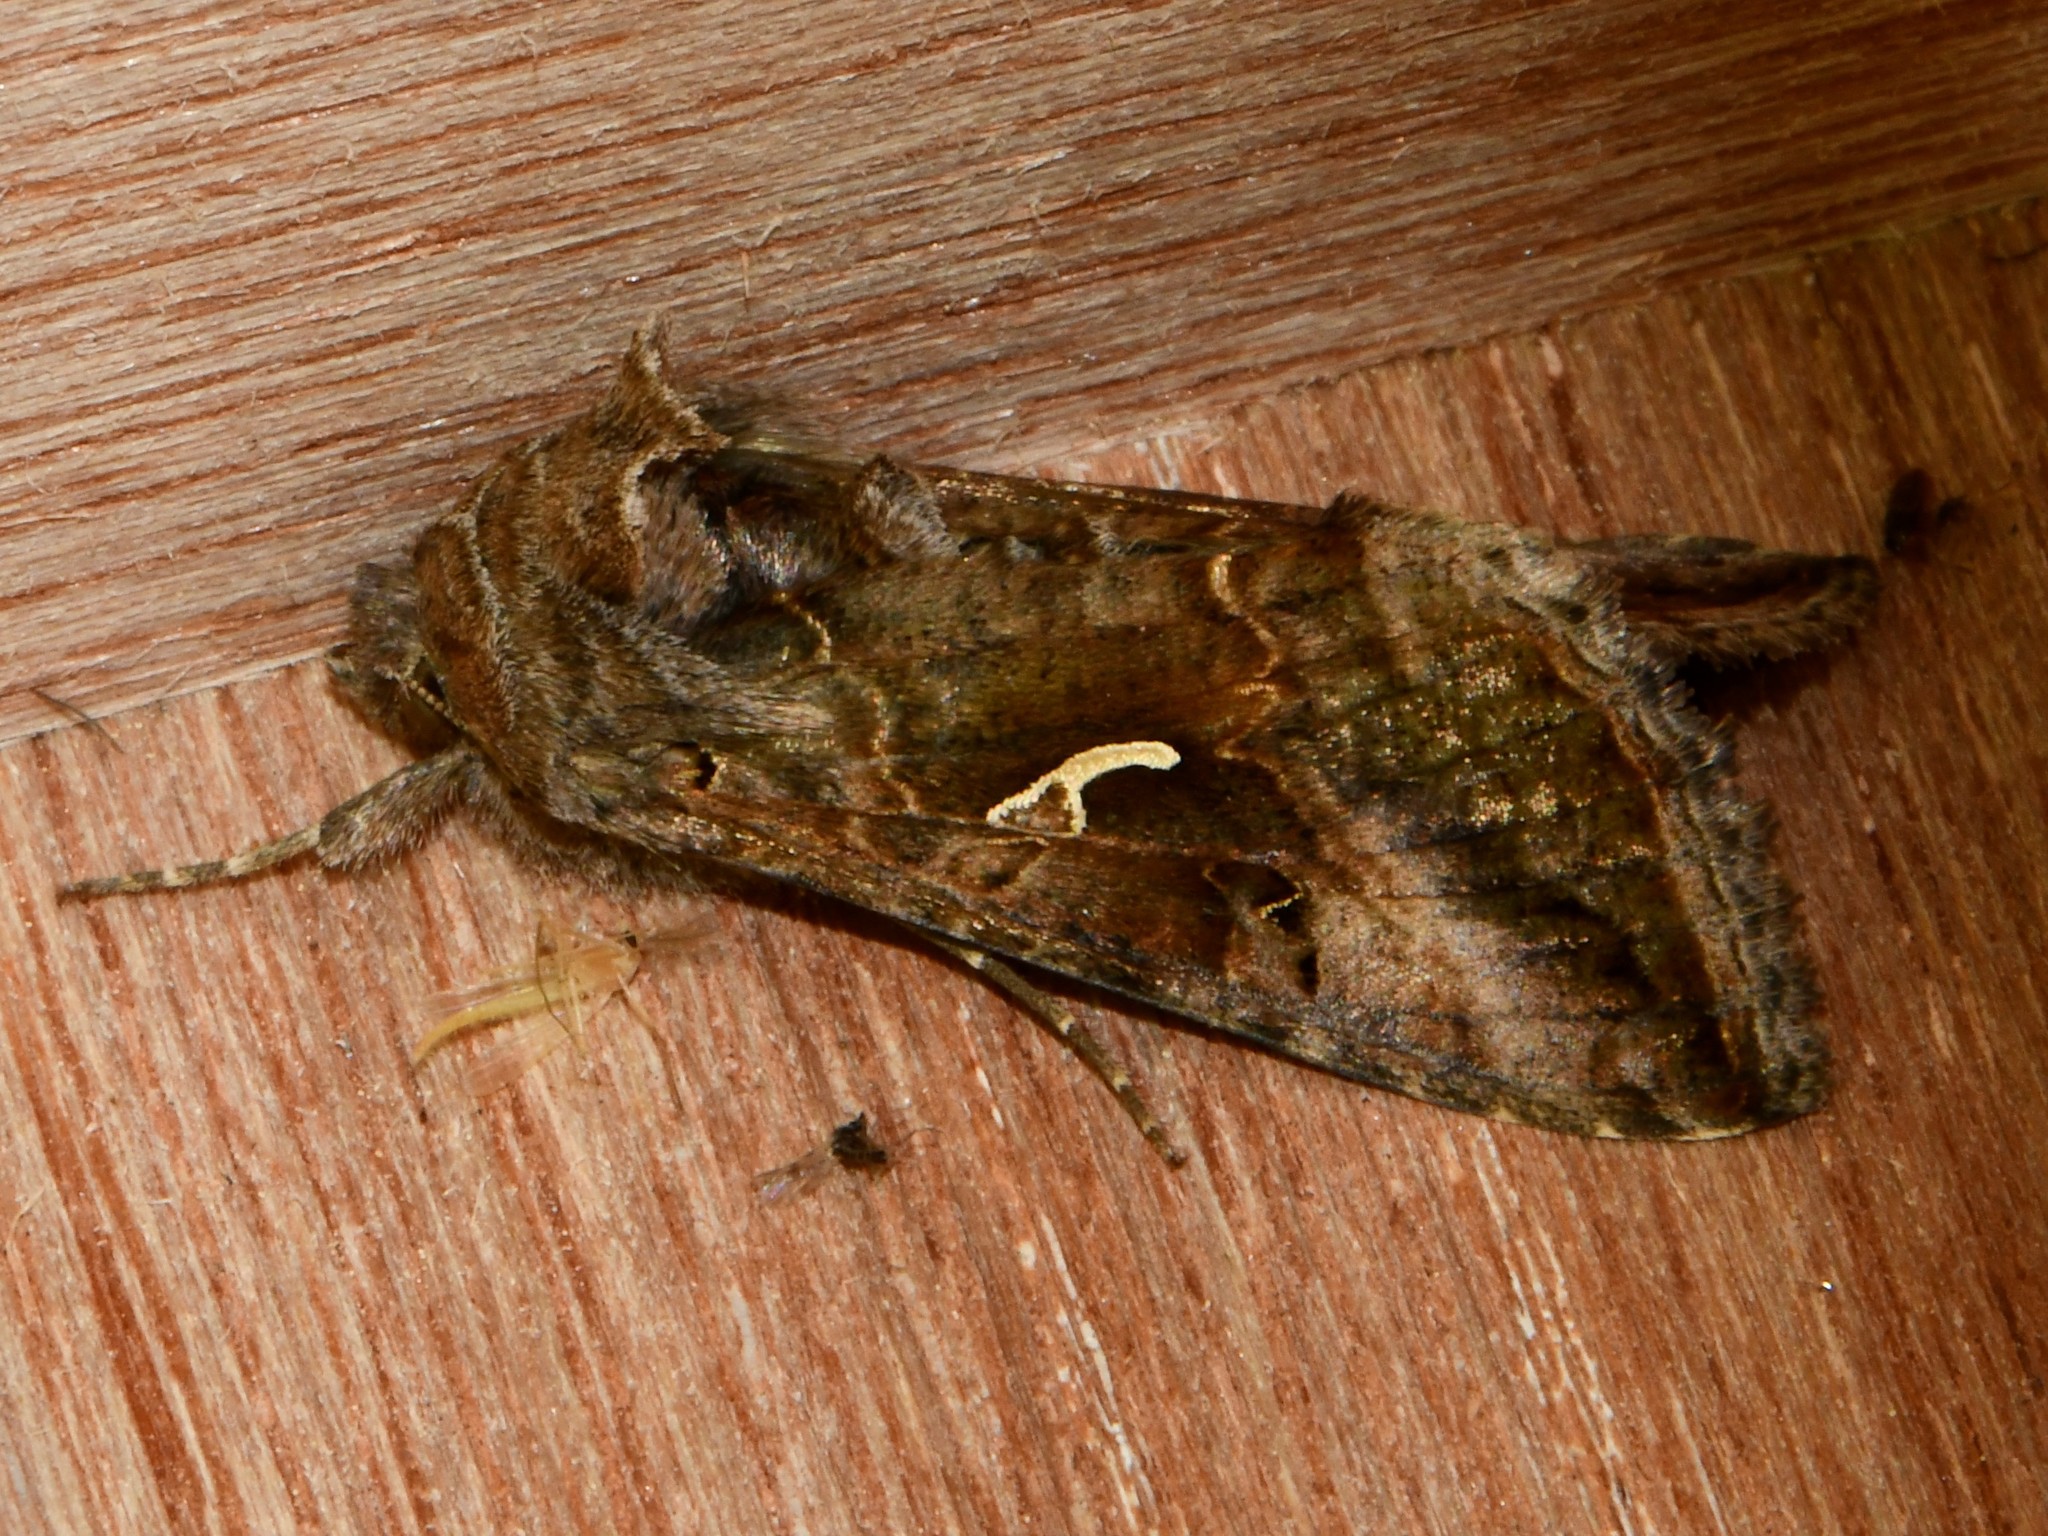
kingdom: Animalia
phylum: Arthropoda
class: Insecta
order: Lepidoptera
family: Noctuidae
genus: Autographa
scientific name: Autographa gamma
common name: Silver y
